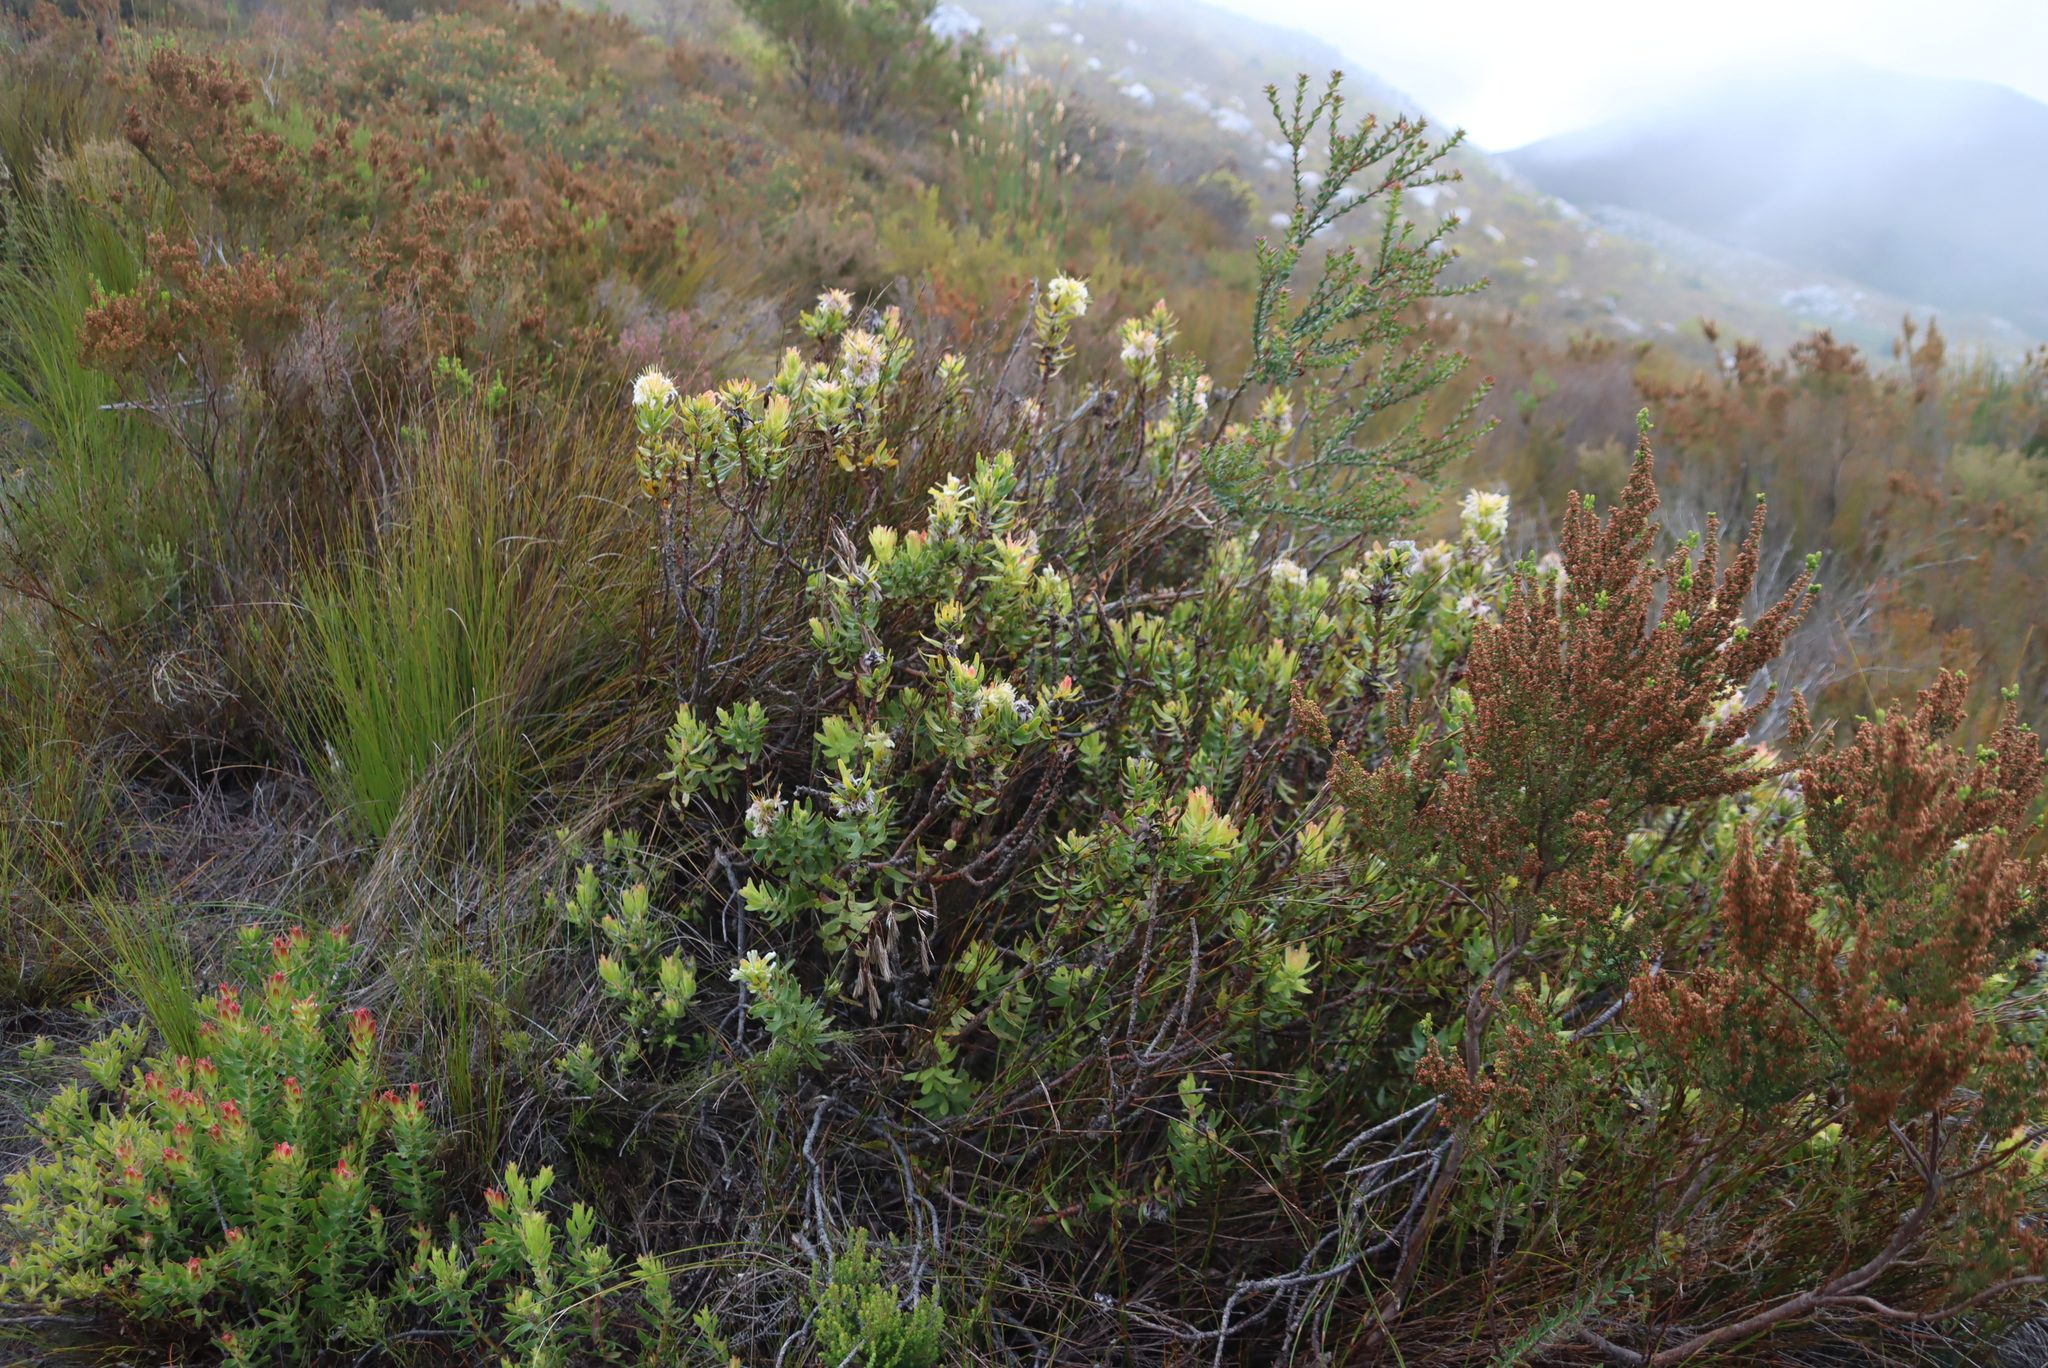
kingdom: Plantae
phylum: Tracheophyta
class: Magnoliopsida
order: Proteales
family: Proteaceae
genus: Mimetes
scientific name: Mimetes cucullatus
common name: Common pagoda
